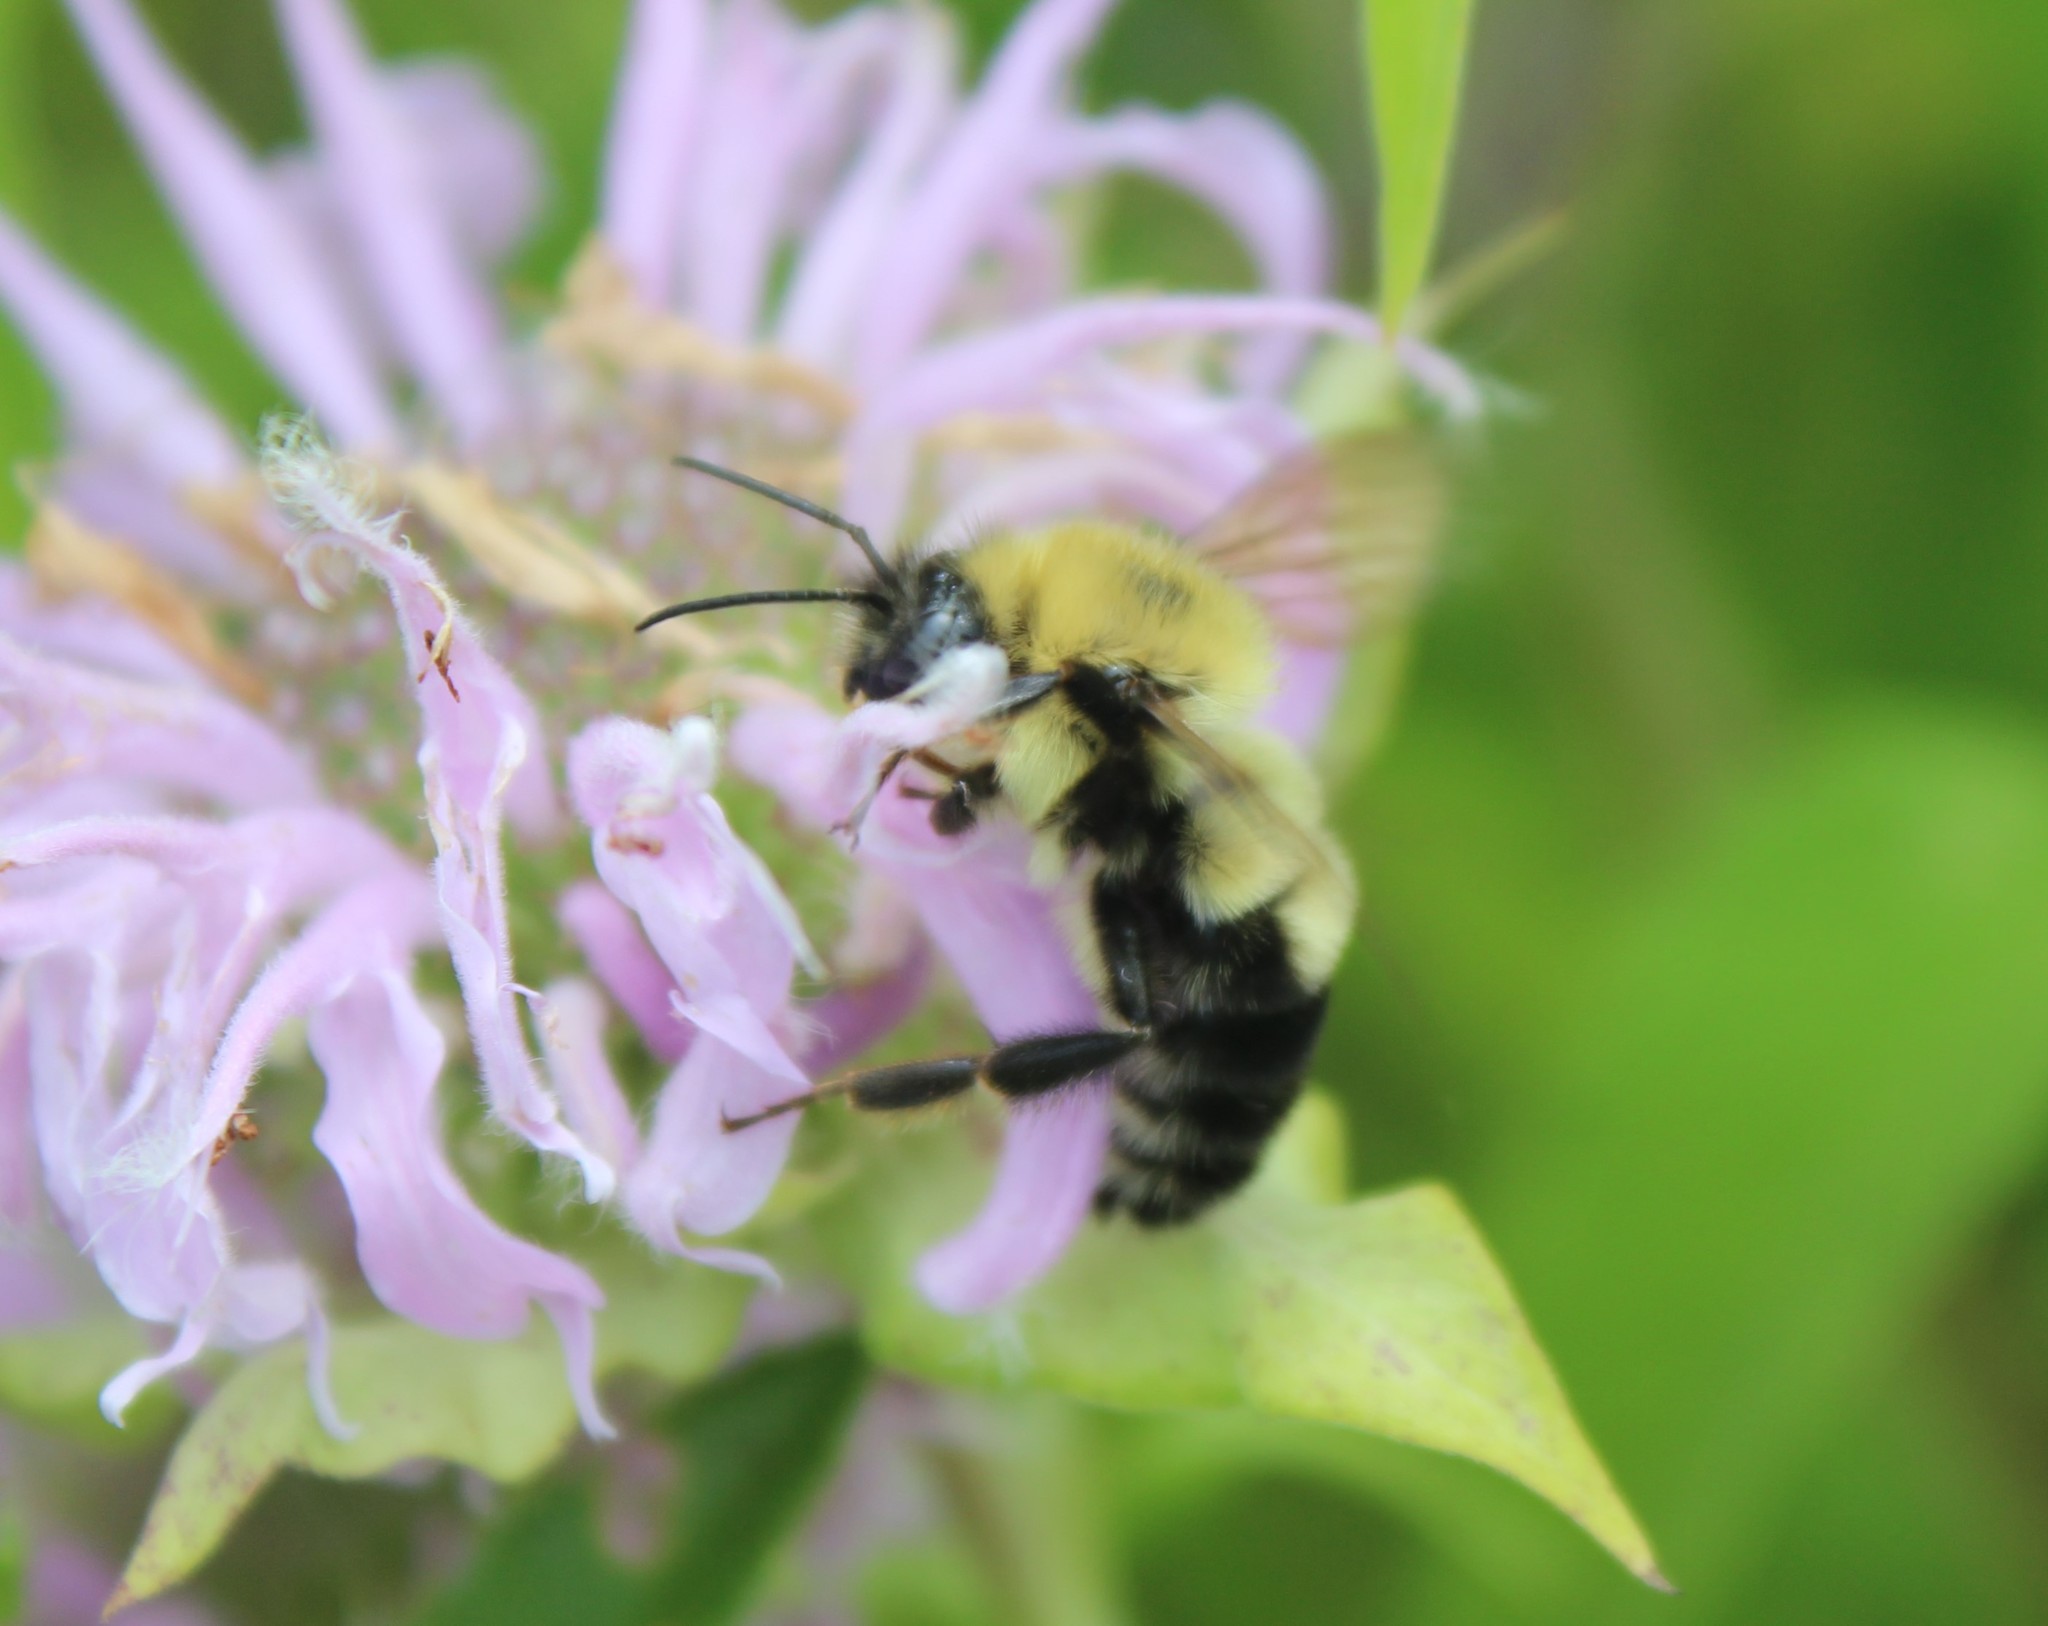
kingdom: Animalia
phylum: Arthropoda
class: Insecta
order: Hymenoptera
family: Apidae
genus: Bombus
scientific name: Bombus bimaculatus
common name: Two-spotted bumble bee
